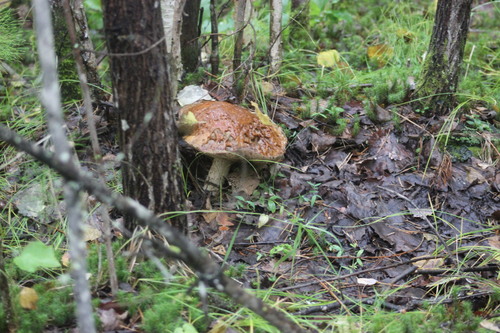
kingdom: Fungi
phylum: Basidiomycota
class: Agaricomycetes
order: Boletales
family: Boletaceae
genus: Leccinum
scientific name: Leccinum
